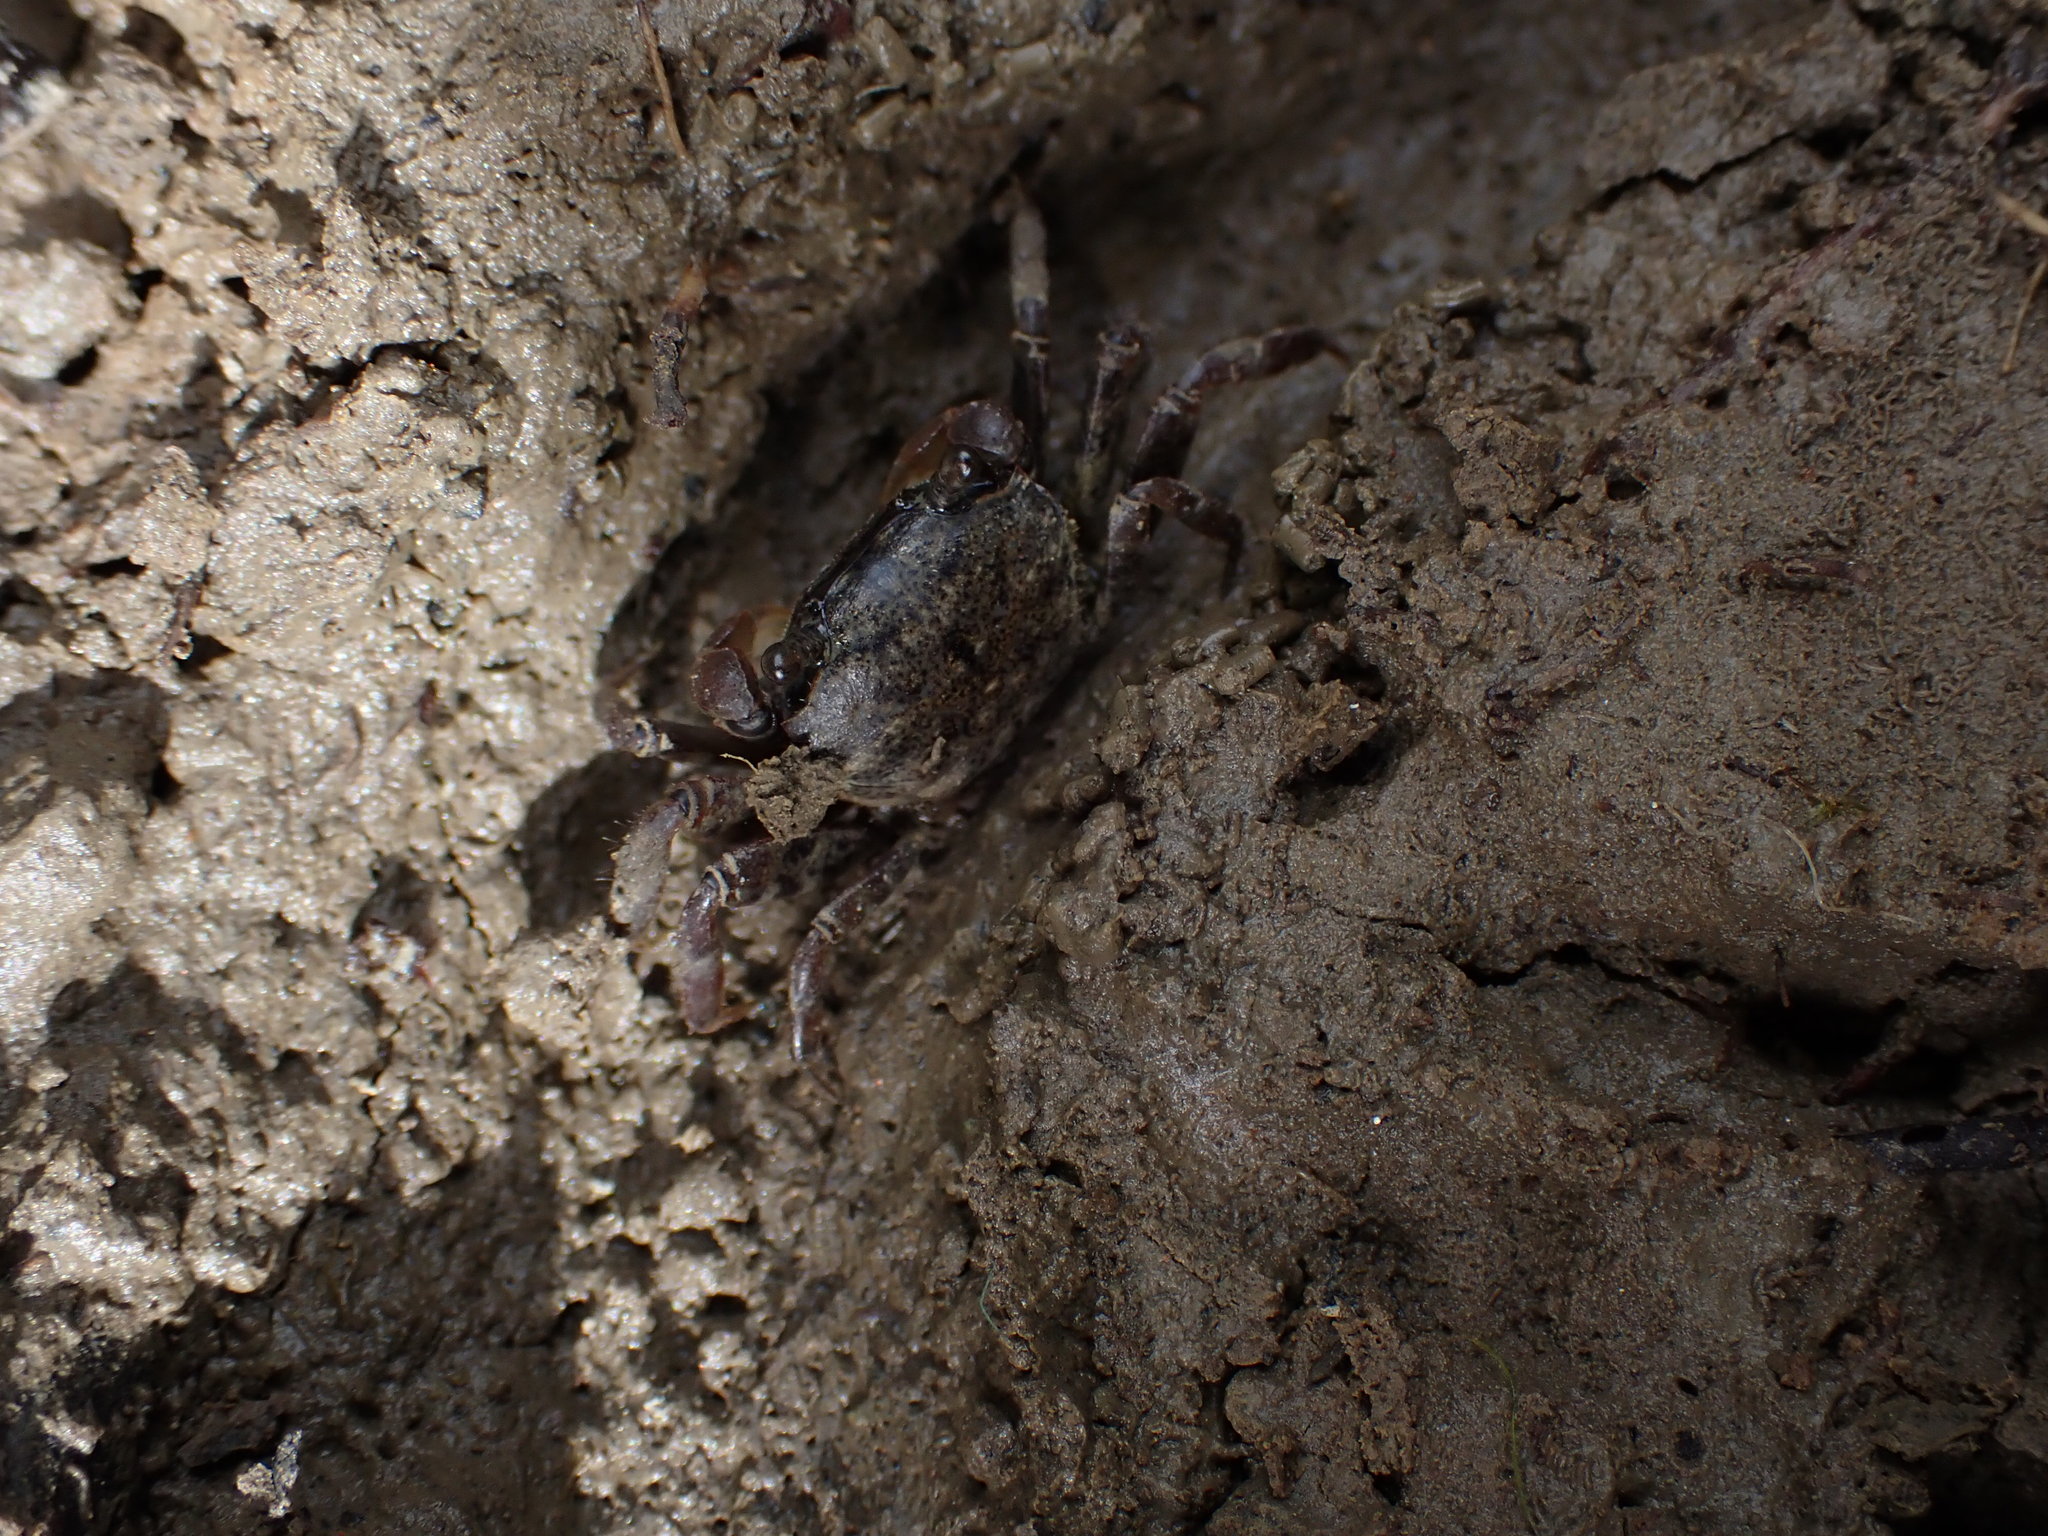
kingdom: Animalia
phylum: Arthropoda
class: Malacostraca
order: Decapoda
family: Varunidae
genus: Austrohelice
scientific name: Austrohelice crassa
